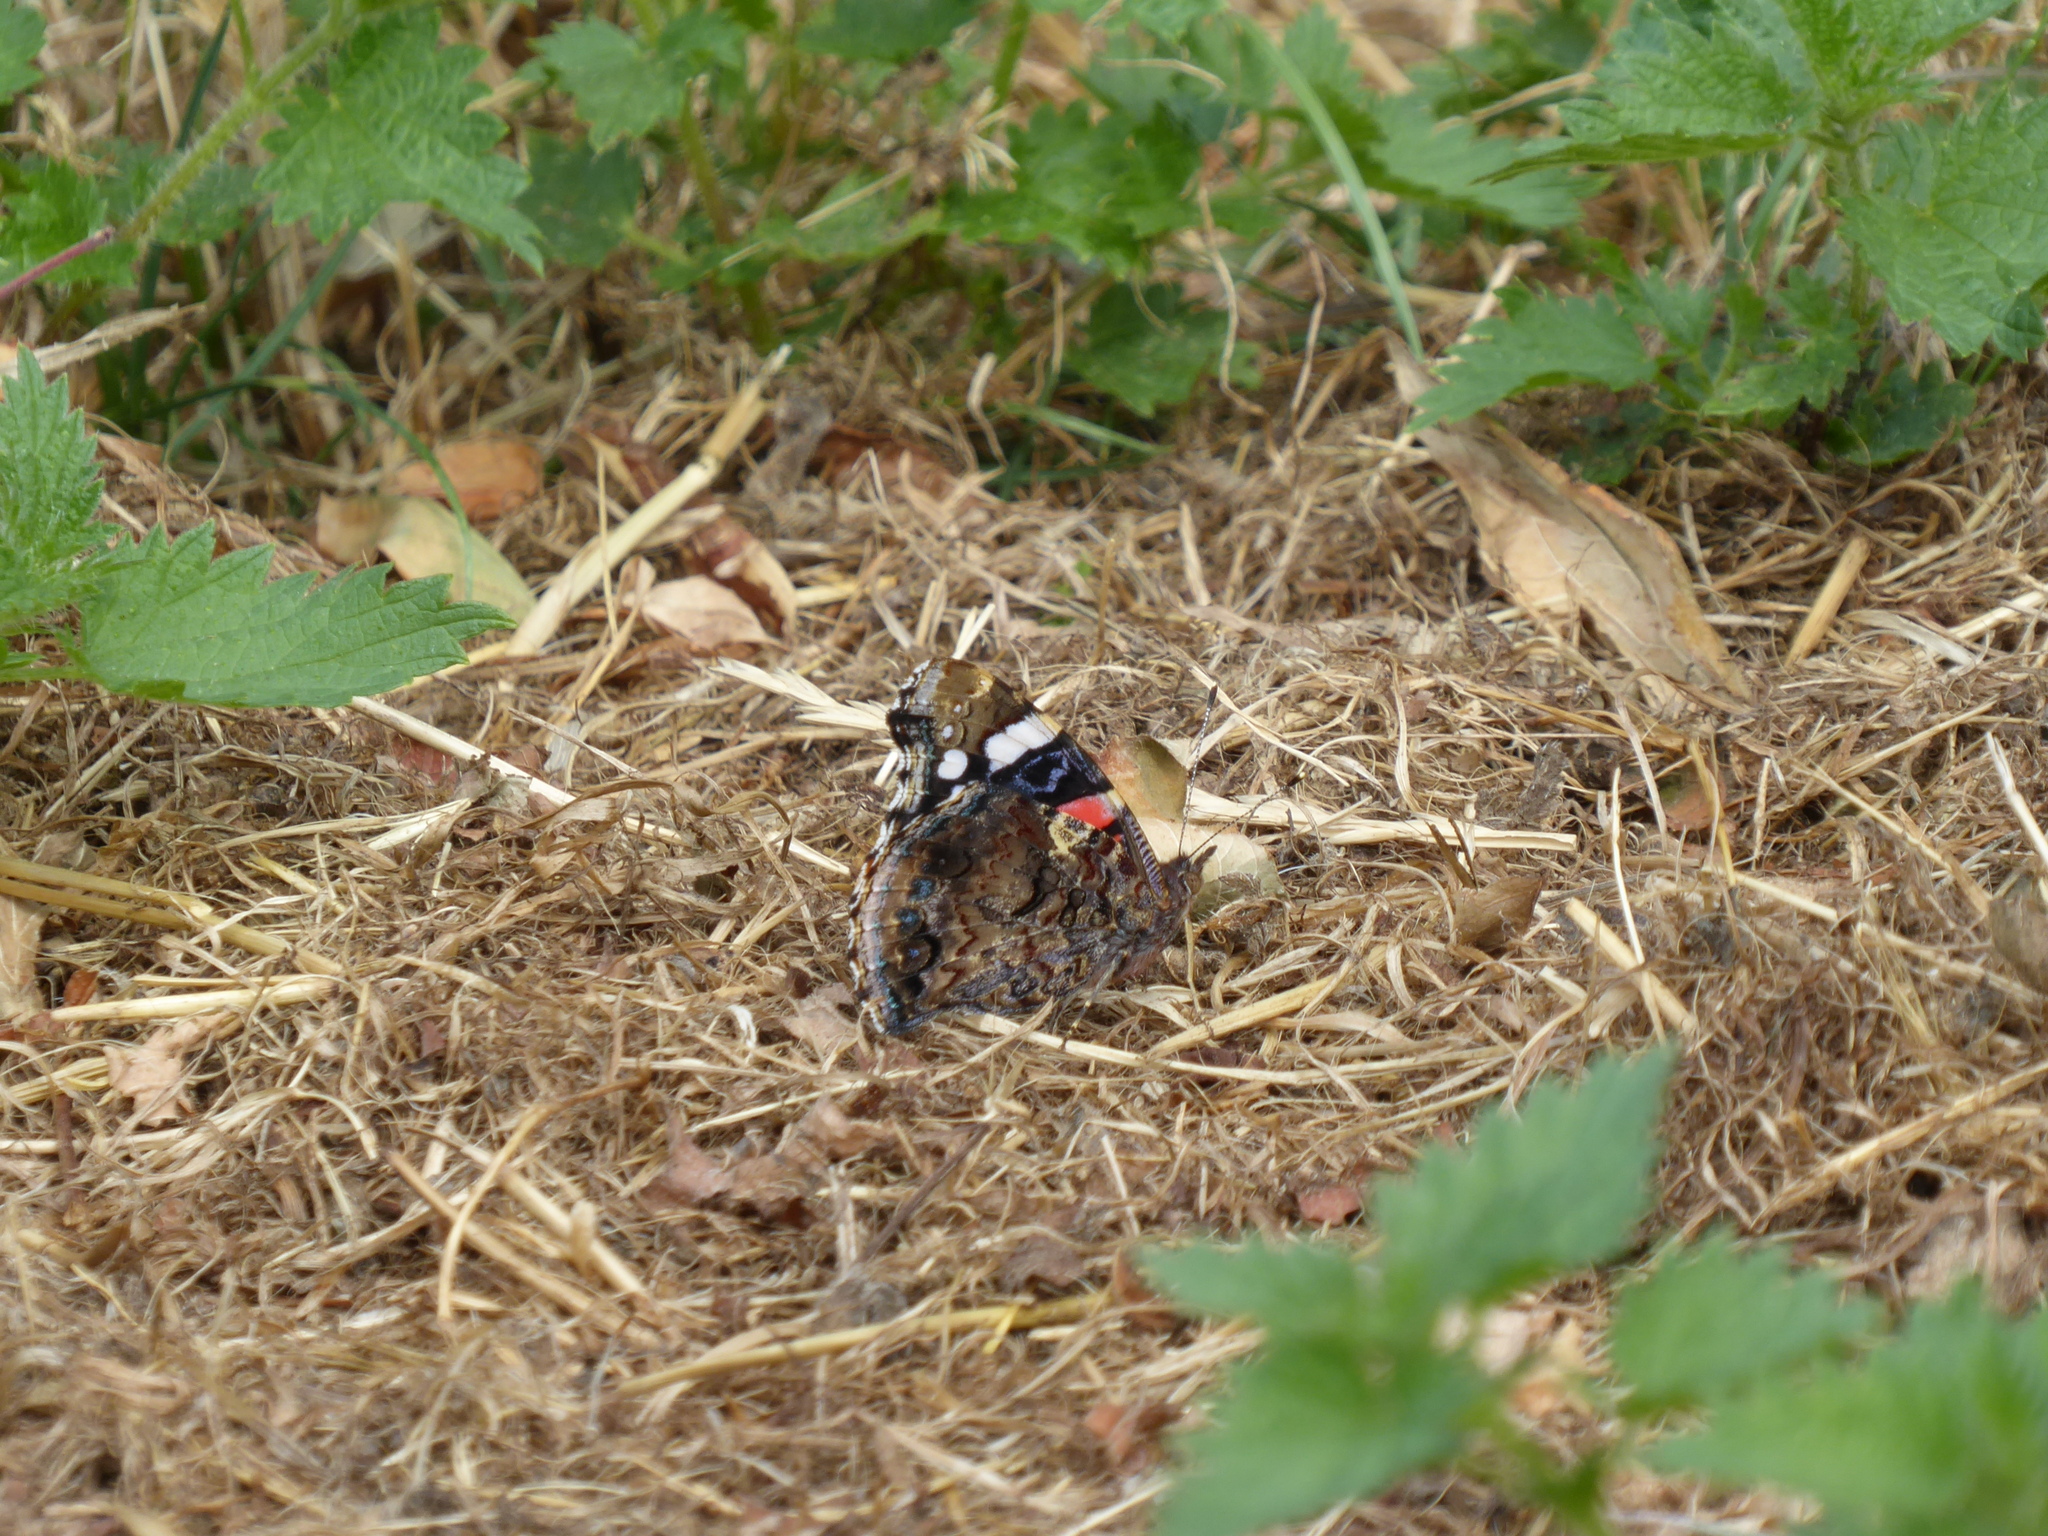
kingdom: Animalia
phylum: Arthropoda
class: Insecta
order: Lepidoptera
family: Nymphalidae
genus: Vanessa
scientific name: Vanessa atalanta
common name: Red admiral
